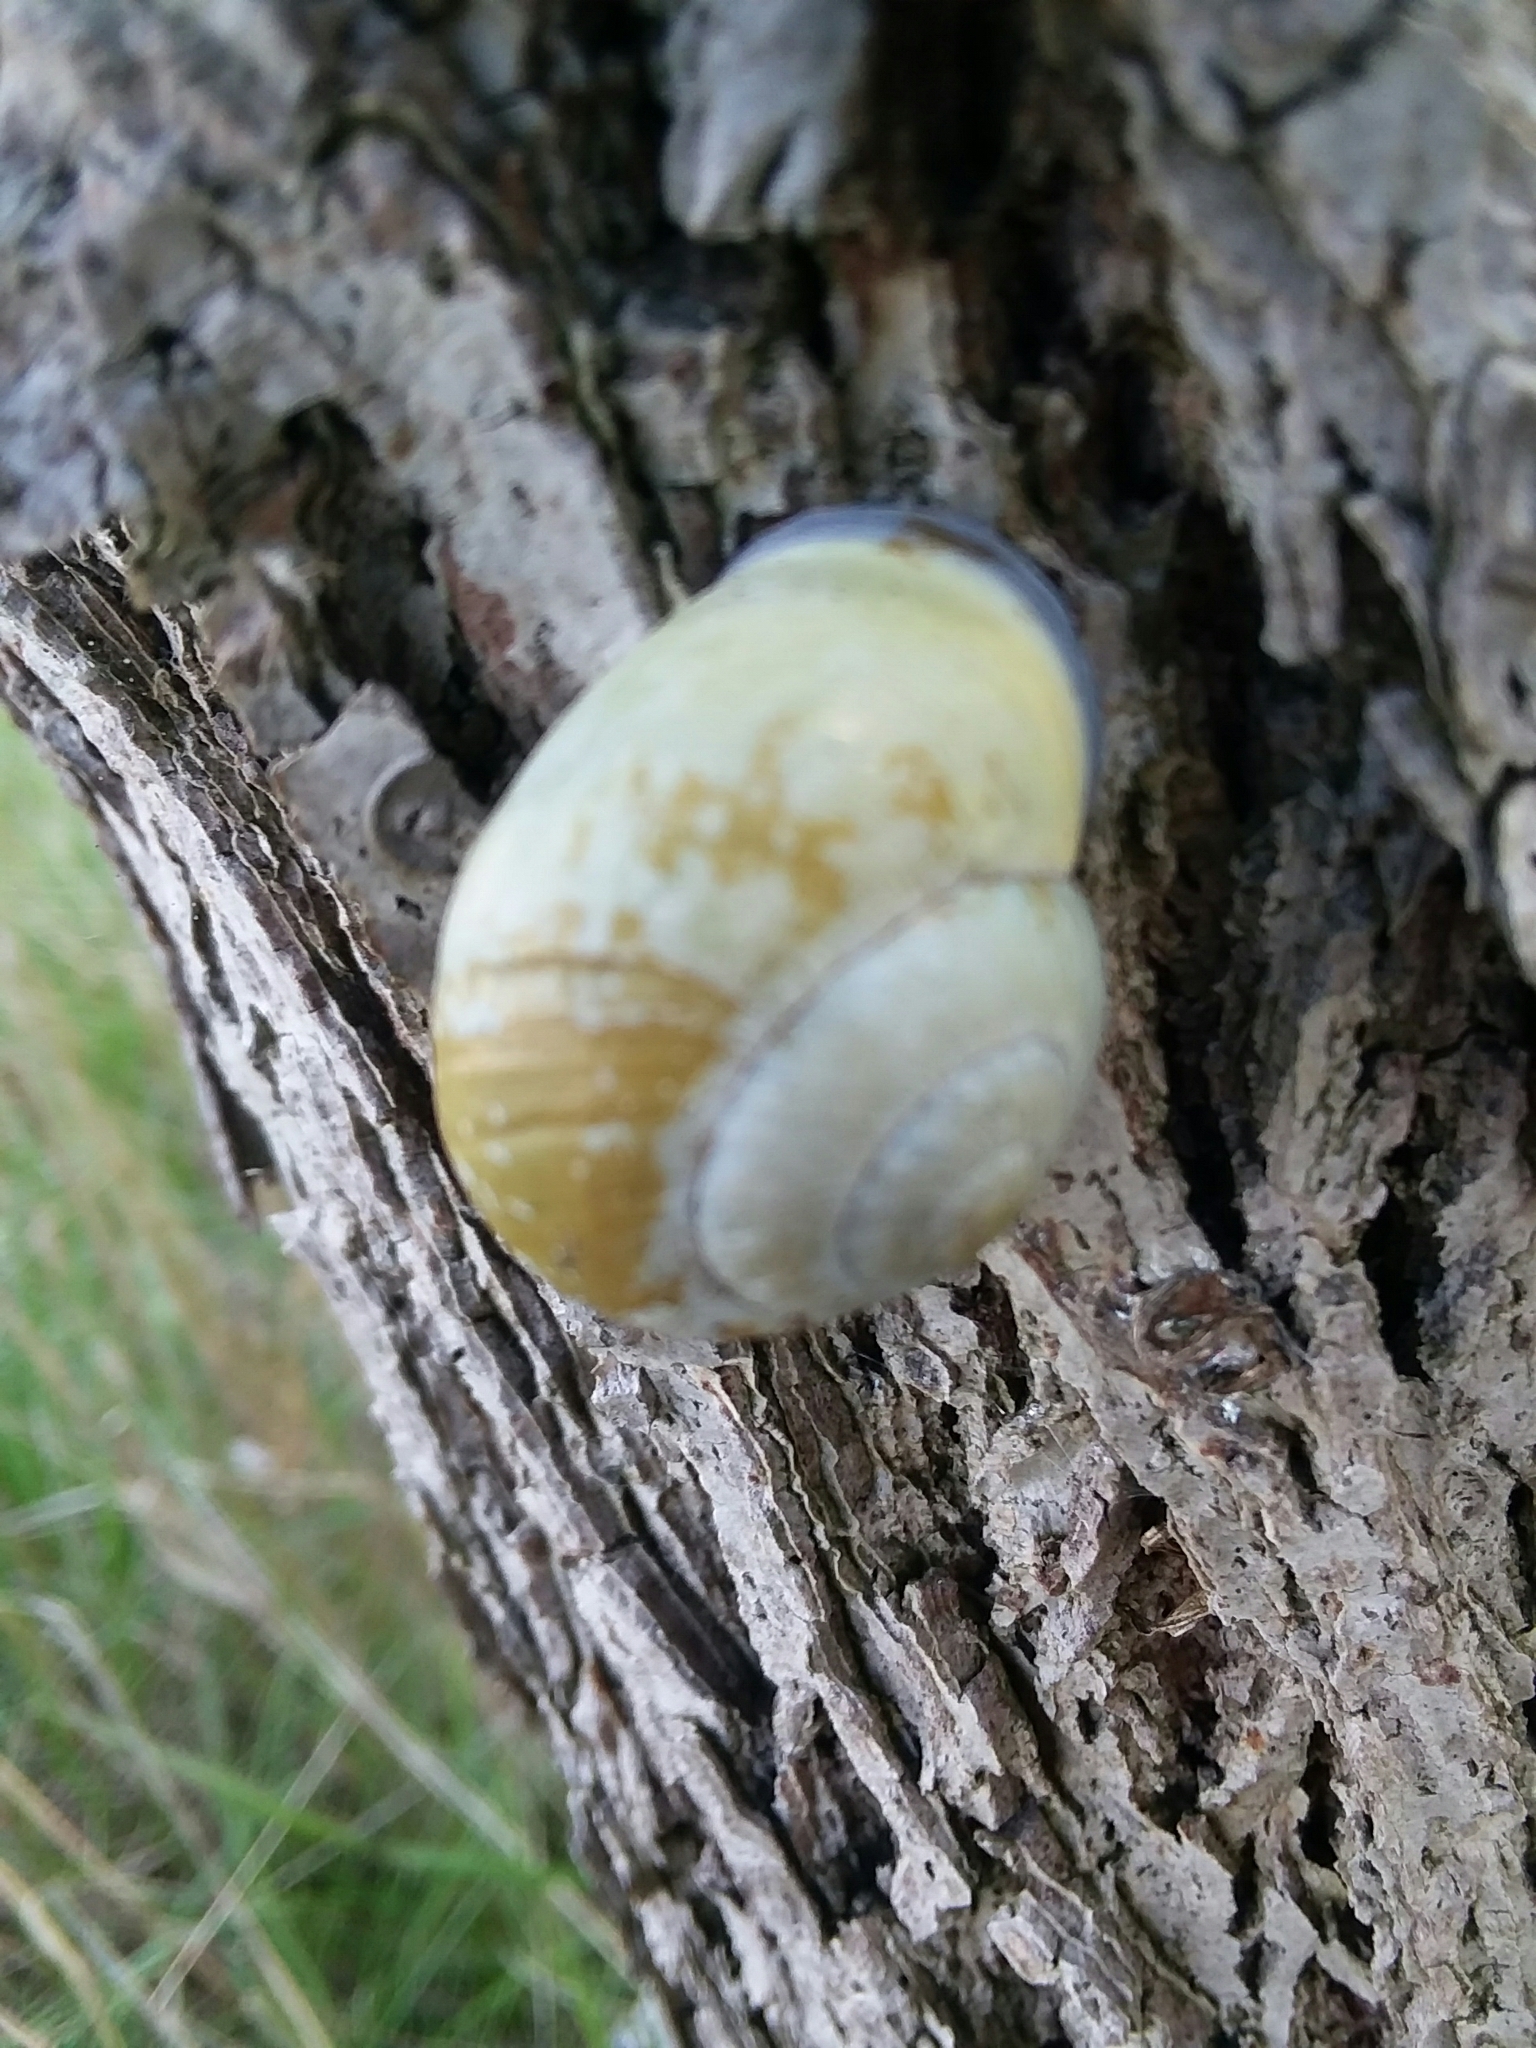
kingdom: Animalia
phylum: Mollusca
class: Gastropoda
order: Stylommatophora
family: Helicidae
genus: Cepaea
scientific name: Cepaea nemoralis
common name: Grovesnail
